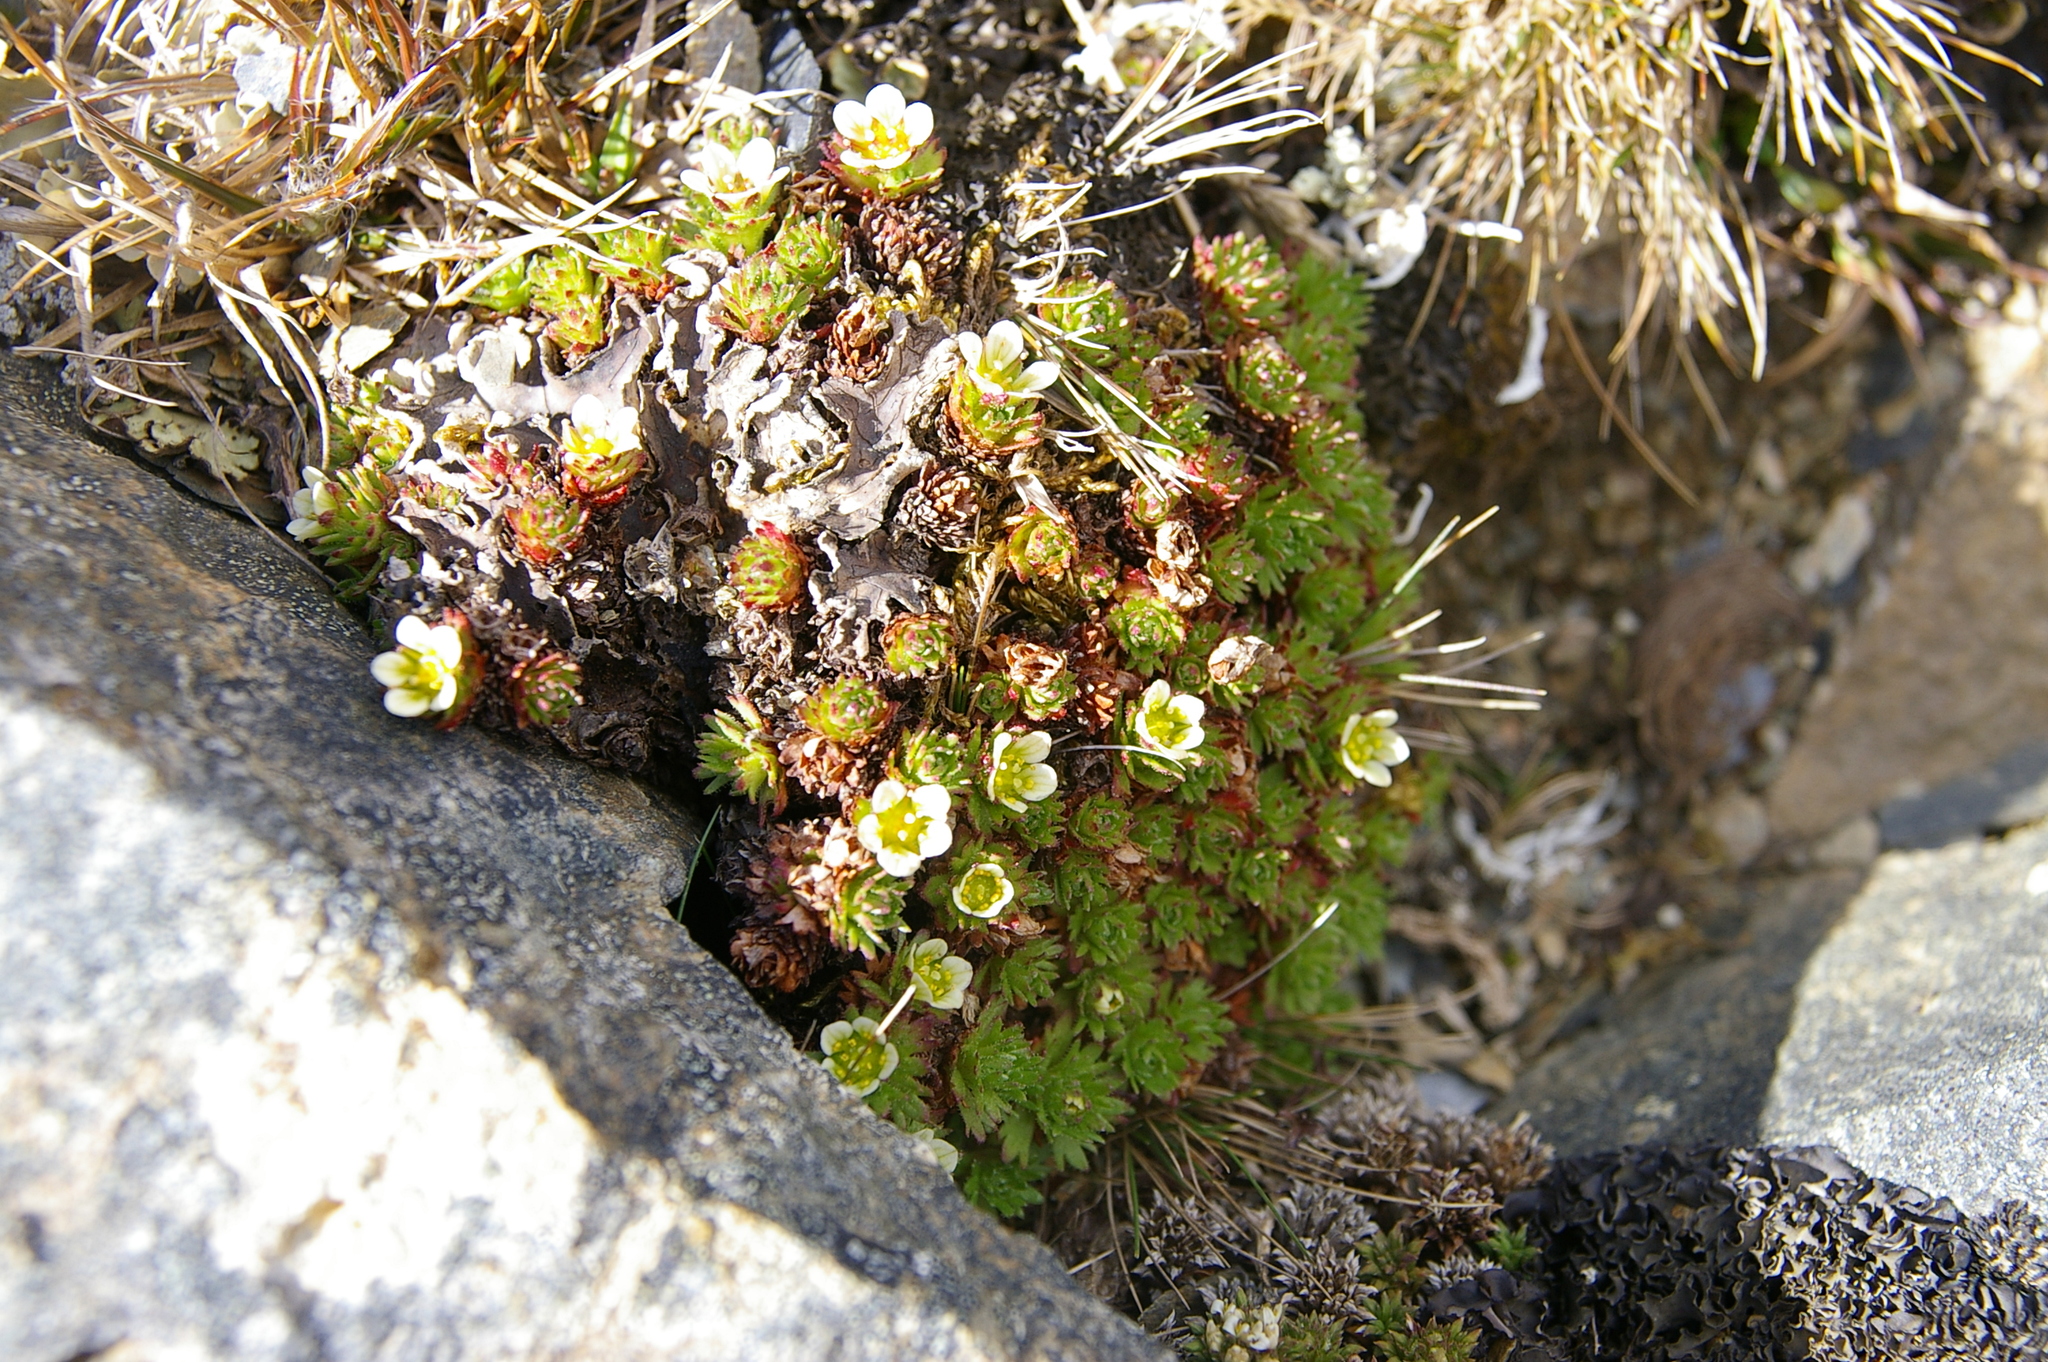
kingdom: Plantae
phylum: Tracheophyta
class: Magnoliopsida
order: Saxifragales
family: Saxifragaceae
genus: Saxifraga
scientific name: Saxifraga magellanica
